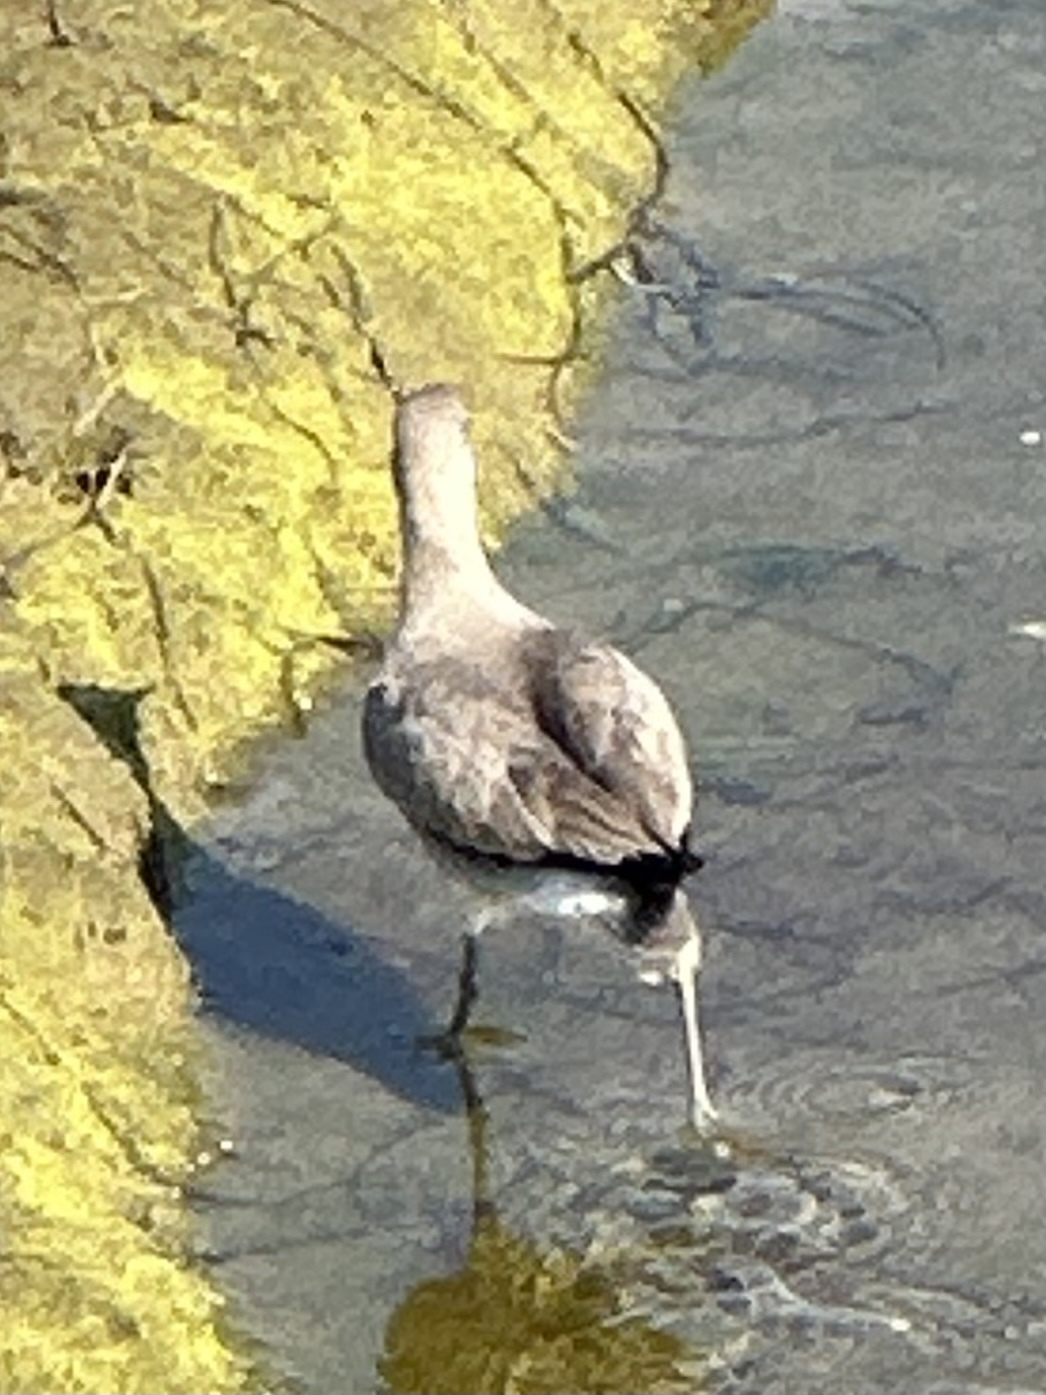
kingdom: Animalia
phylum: Chordata
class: Aves
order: Charadriiformes
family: Scolopacidae
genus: Tringa
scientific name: Tringa semipalmata
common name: Willet
